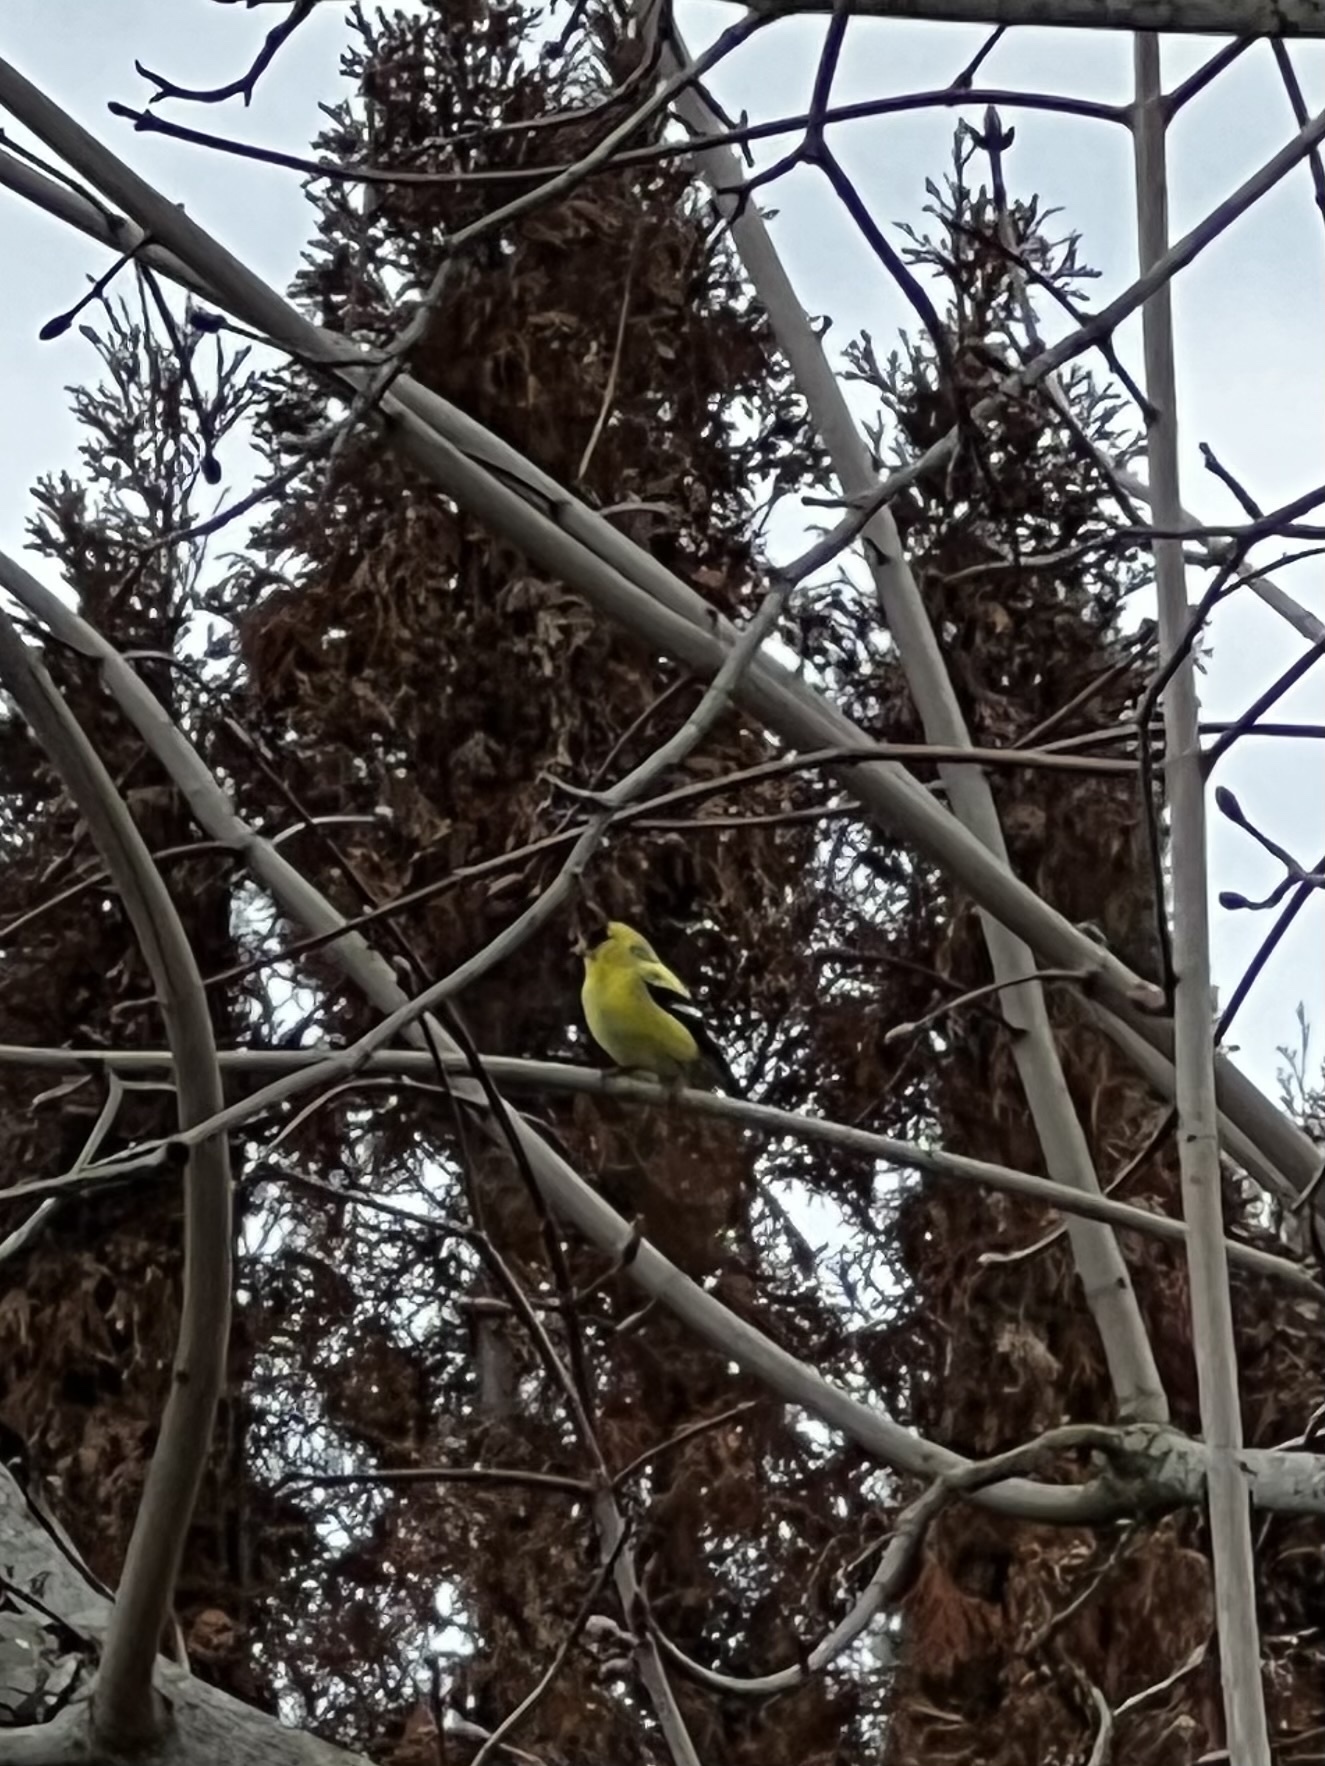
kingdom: Animalia
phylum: Chordata
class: Aves
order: Passeriformes
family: Fringillidae
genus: Spinus
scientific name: Spinus tristis
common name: American goldfinch
